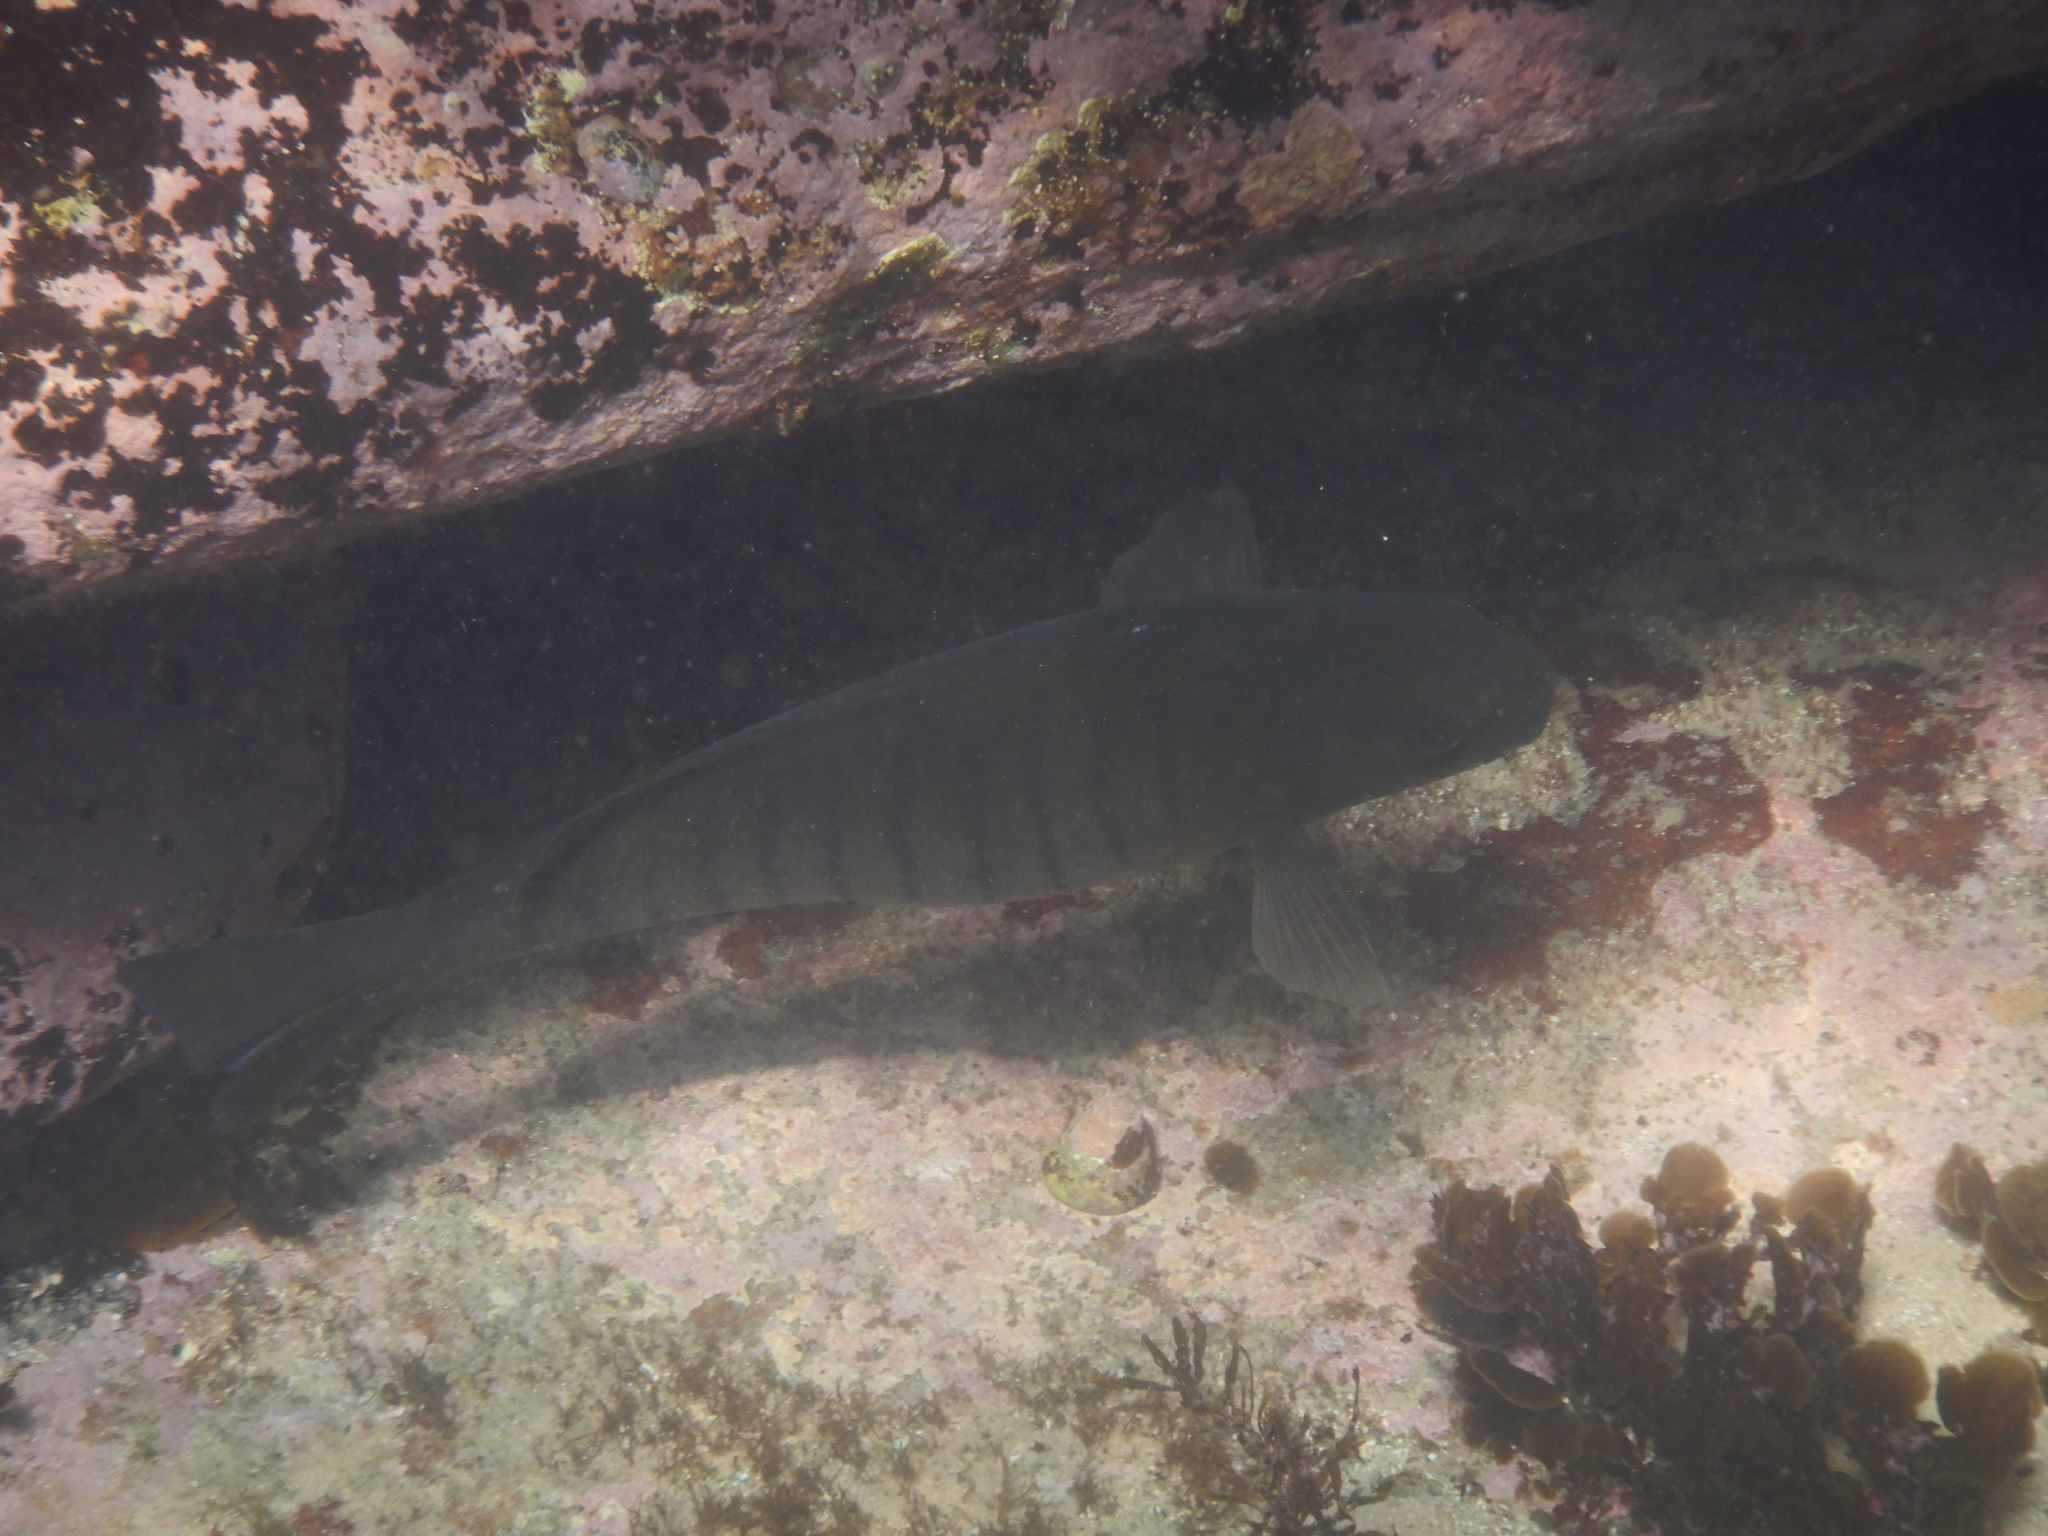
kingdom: Animalia
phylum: Chordata
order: Perciformes
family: Kyphosidae
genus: Girella
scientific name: Girella tricuspidata
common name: Parore
